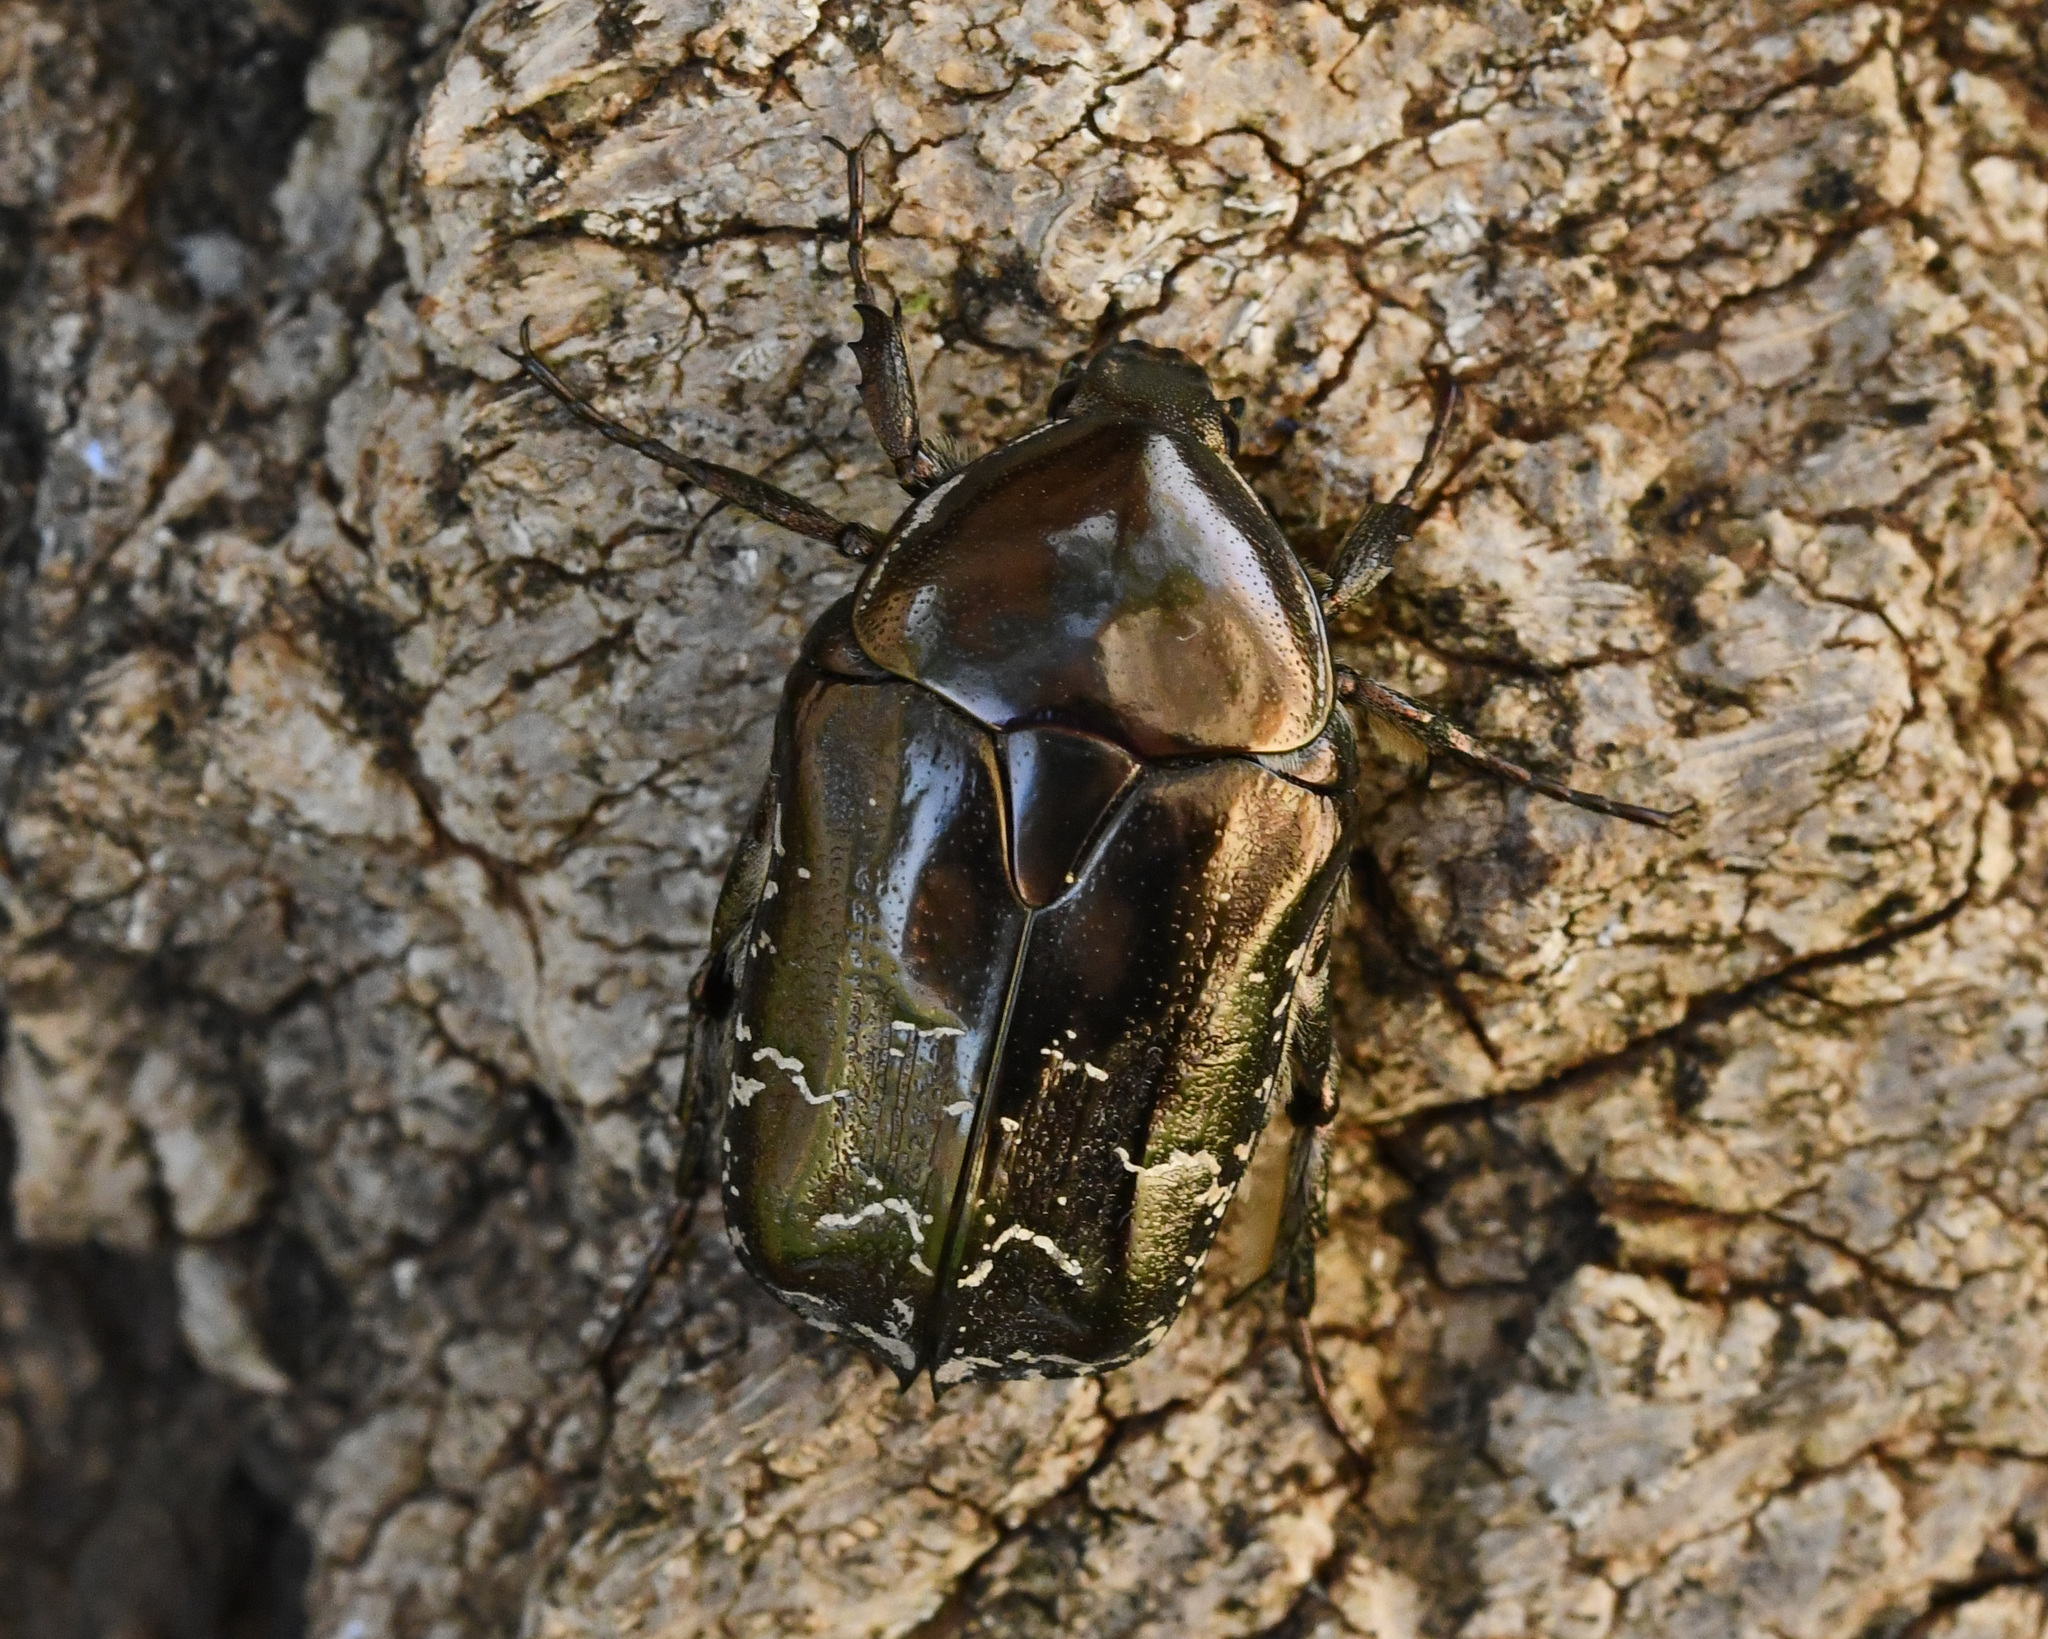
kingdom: Animalia
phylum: Arthropoda
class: Insecta
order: Coleoptera
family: Scarabaeidae
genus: Protaetia
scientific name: Protaetia ikonomovi
